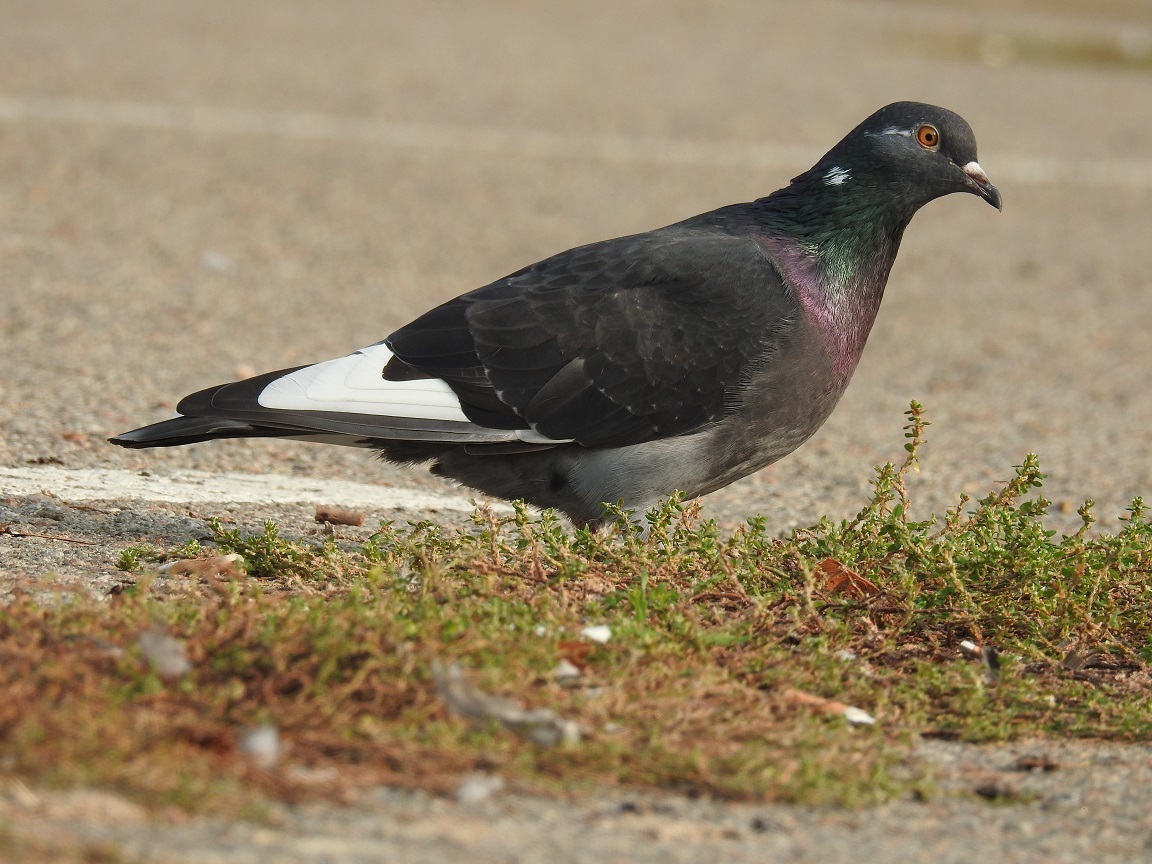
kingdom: Animalia
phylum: Chordata
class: Aves
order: Columbiformes
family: Columbidae
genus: Columba
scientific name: Columba livia
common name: Rock pigeon
